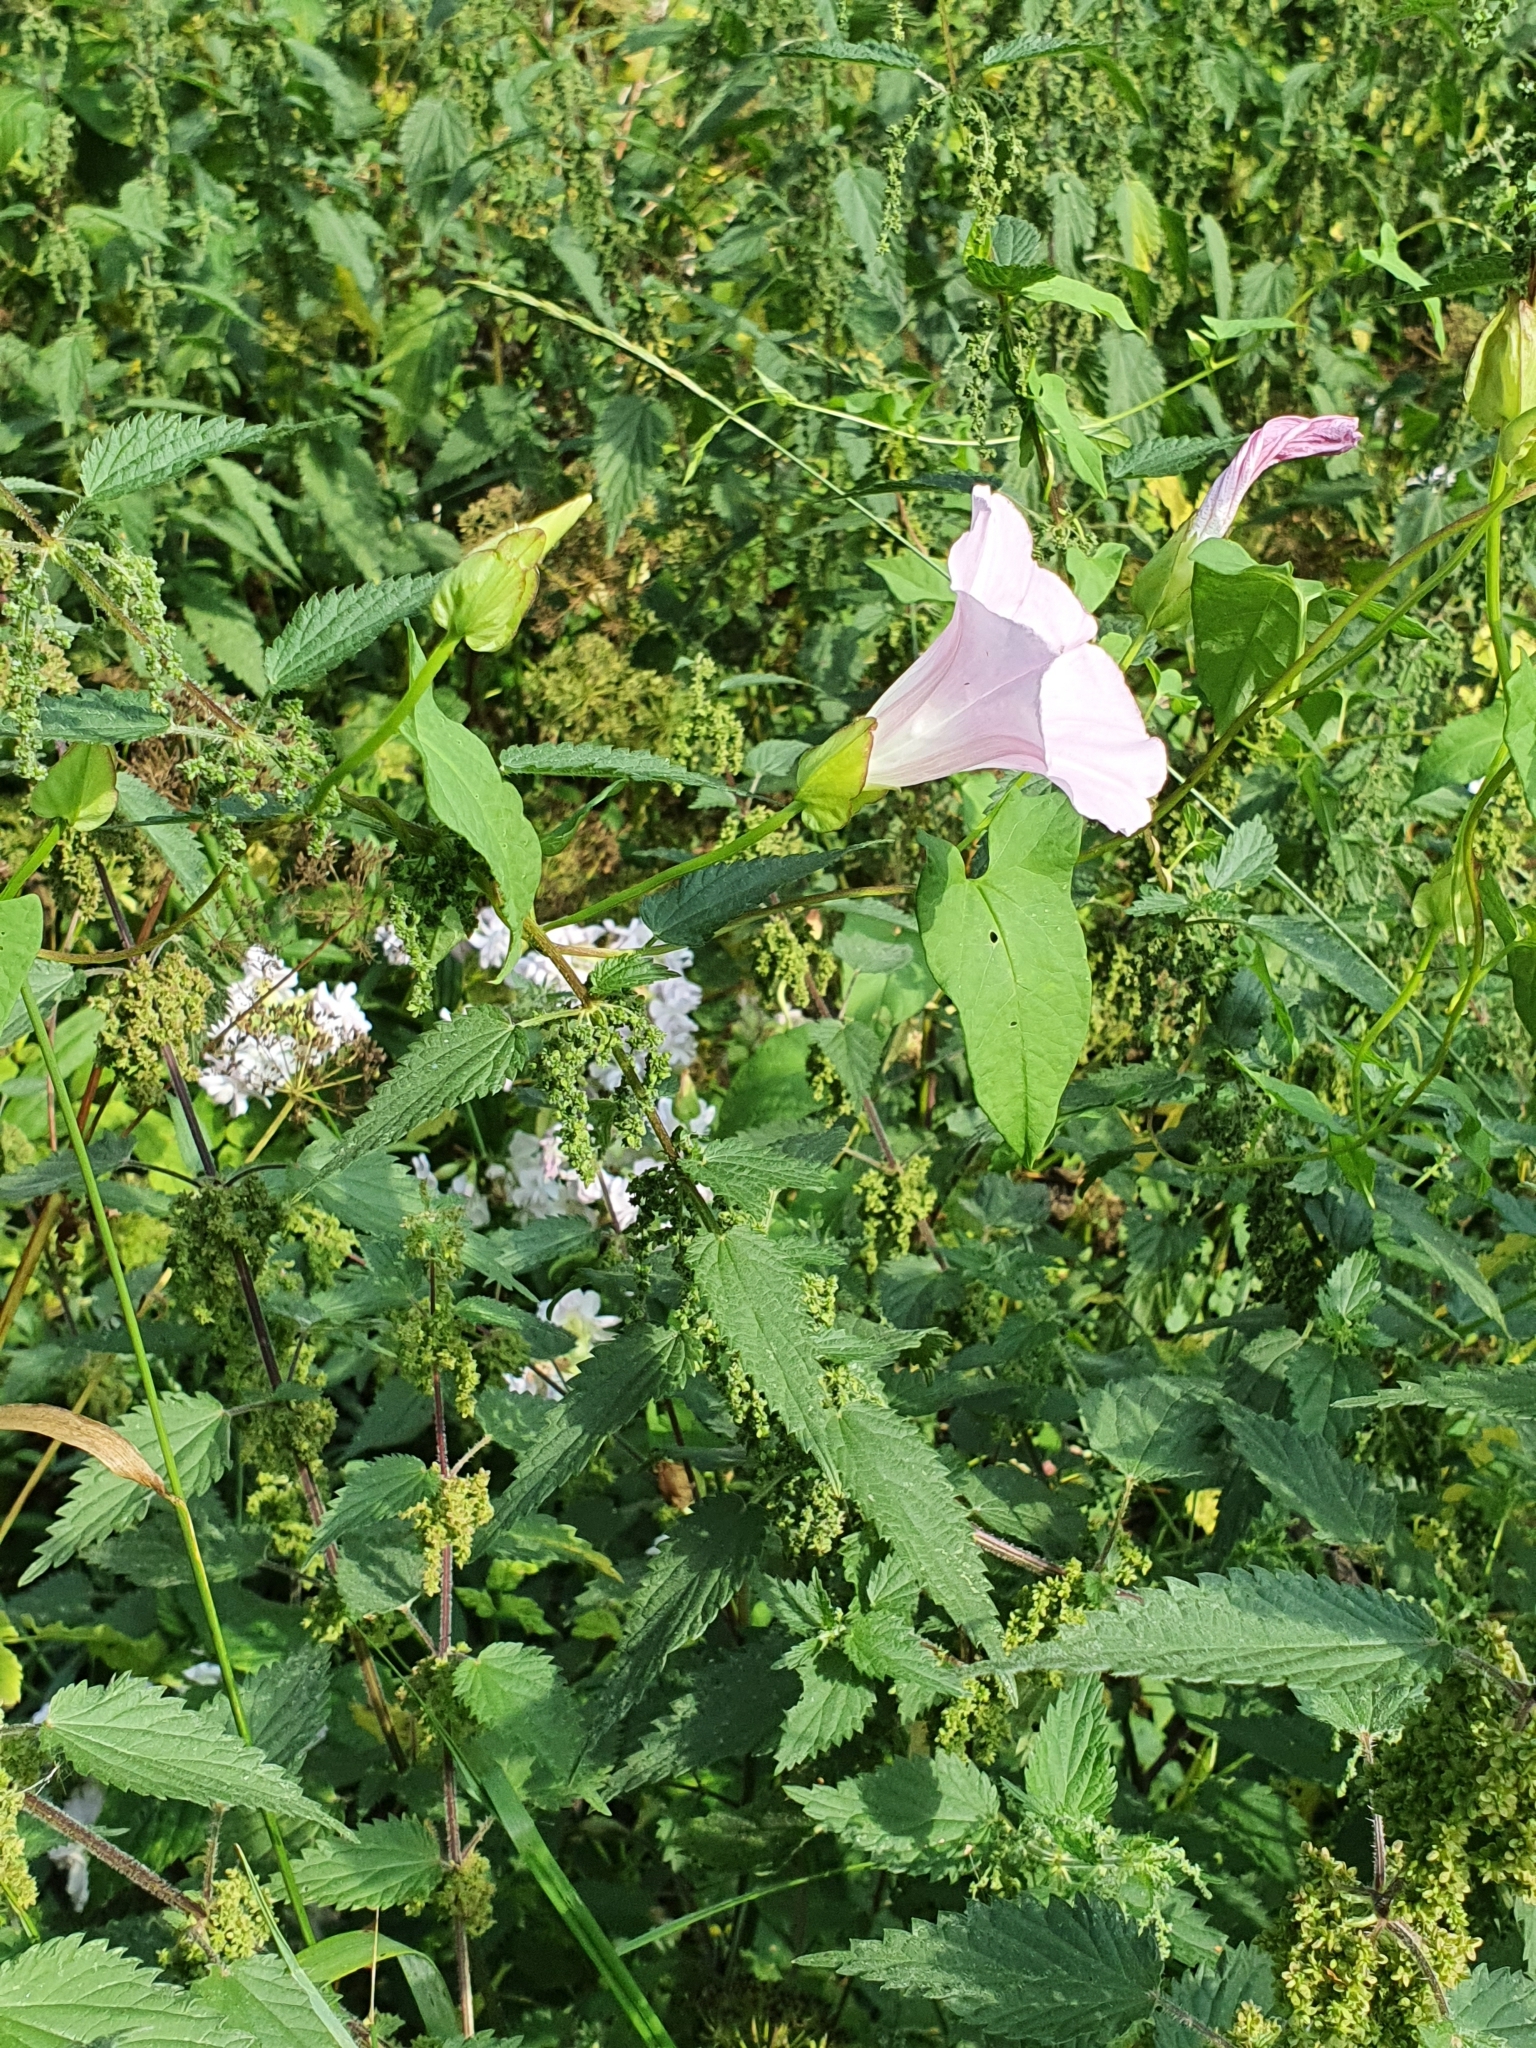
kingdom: Plantae
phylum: Tracheophyta
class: Magnoliopsida
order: Solanales
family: Convolvulaceae
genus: Calystegia
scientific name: Calystegia sepium
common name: Hedge bindweed
